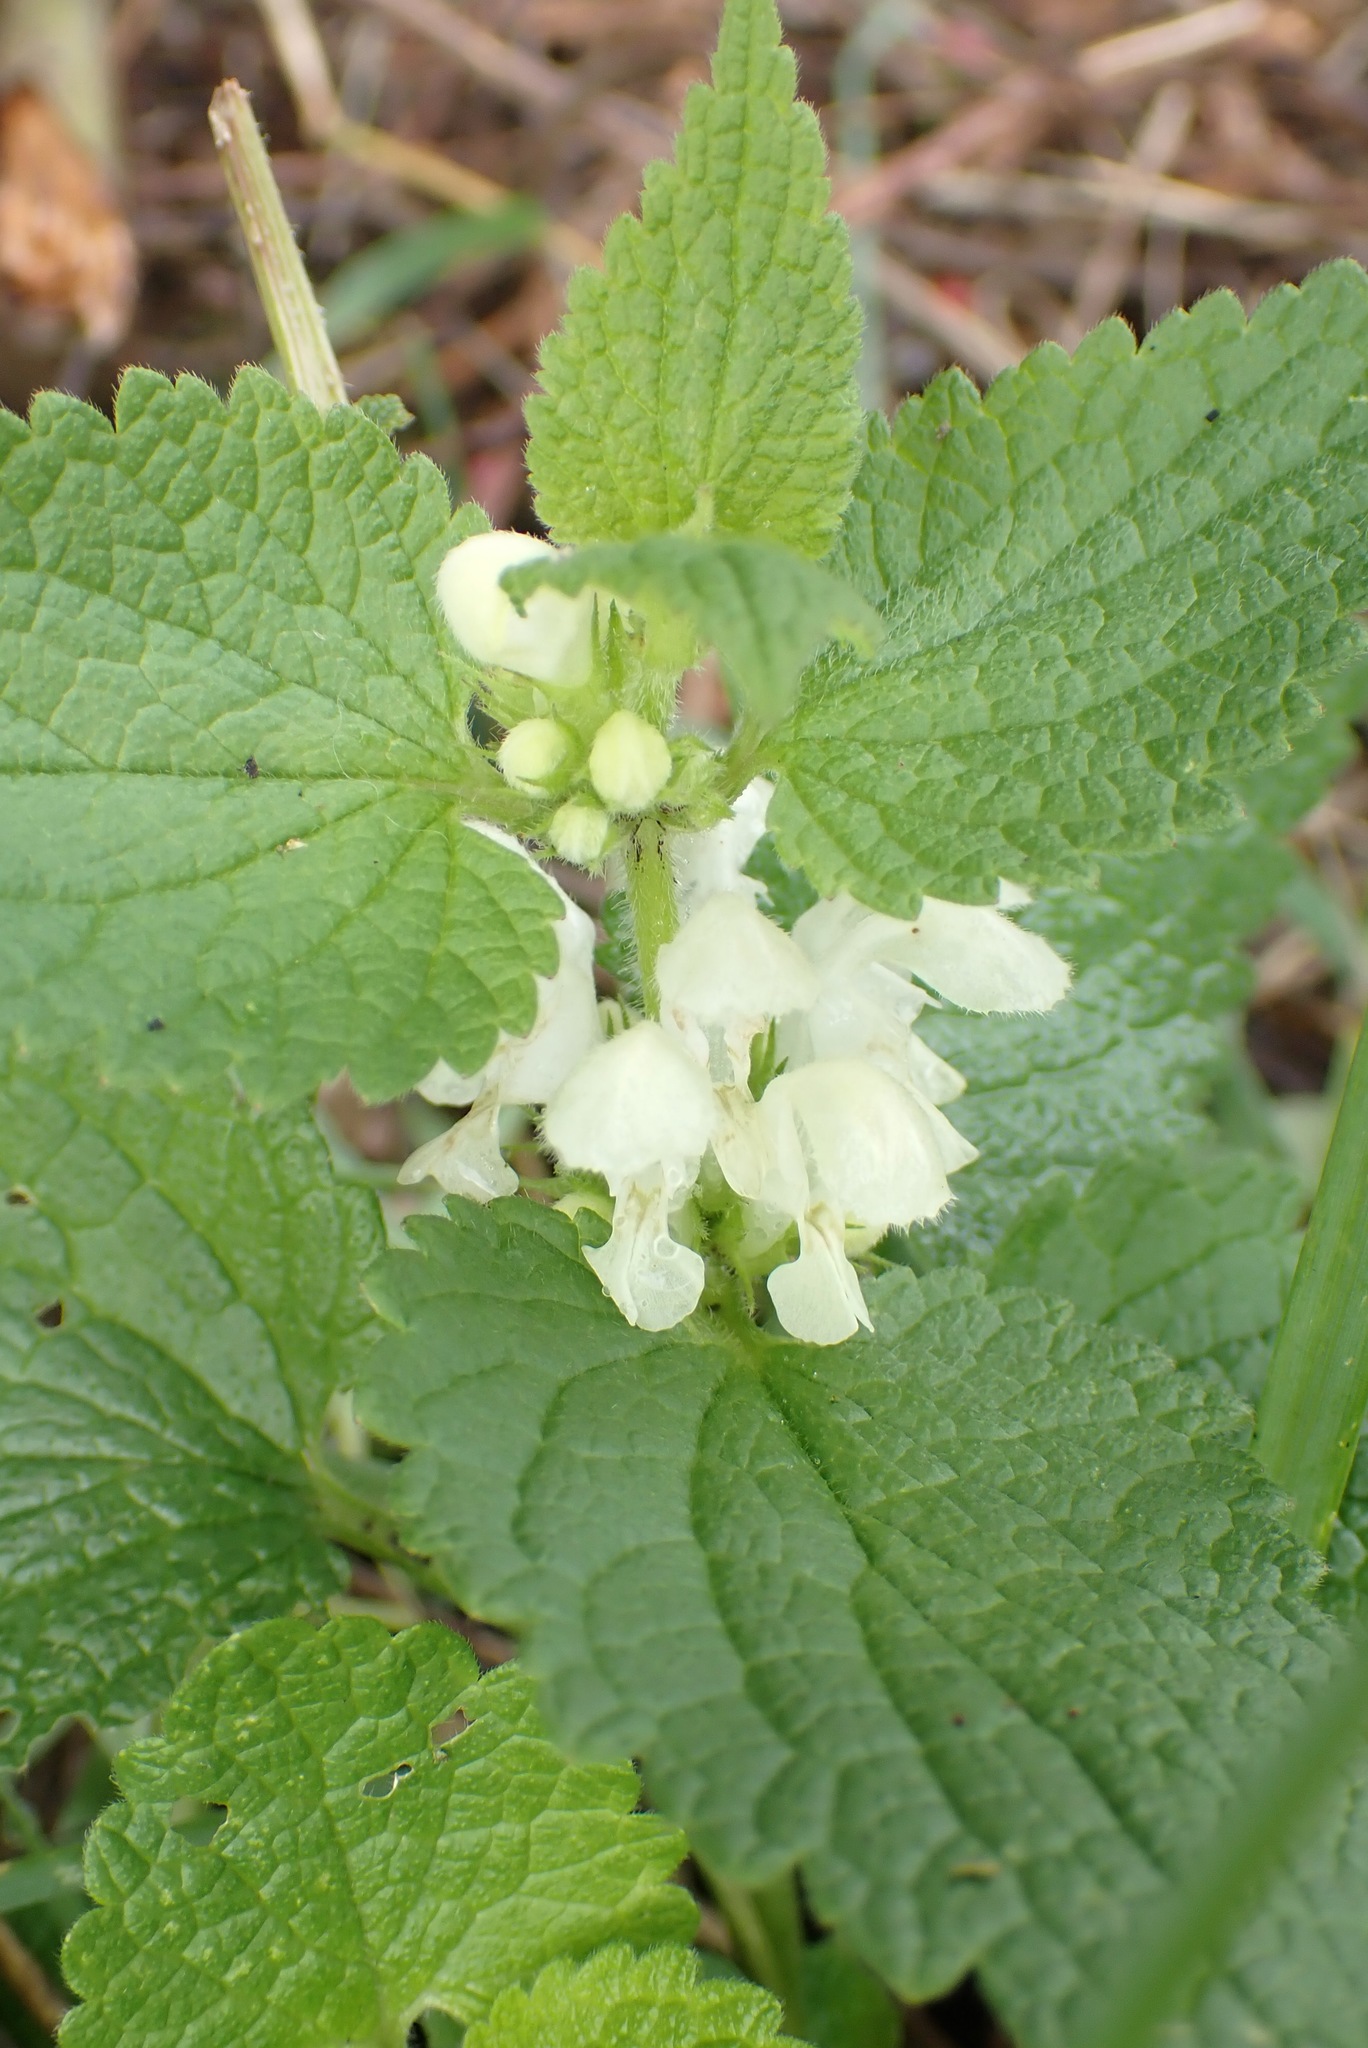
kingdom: Plantae
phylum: Tracheophyta
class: Magnoliopsida
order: Lamiales
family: Lamiaceae
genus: Lamium
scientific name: Lamium album
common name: White dead-nettle
